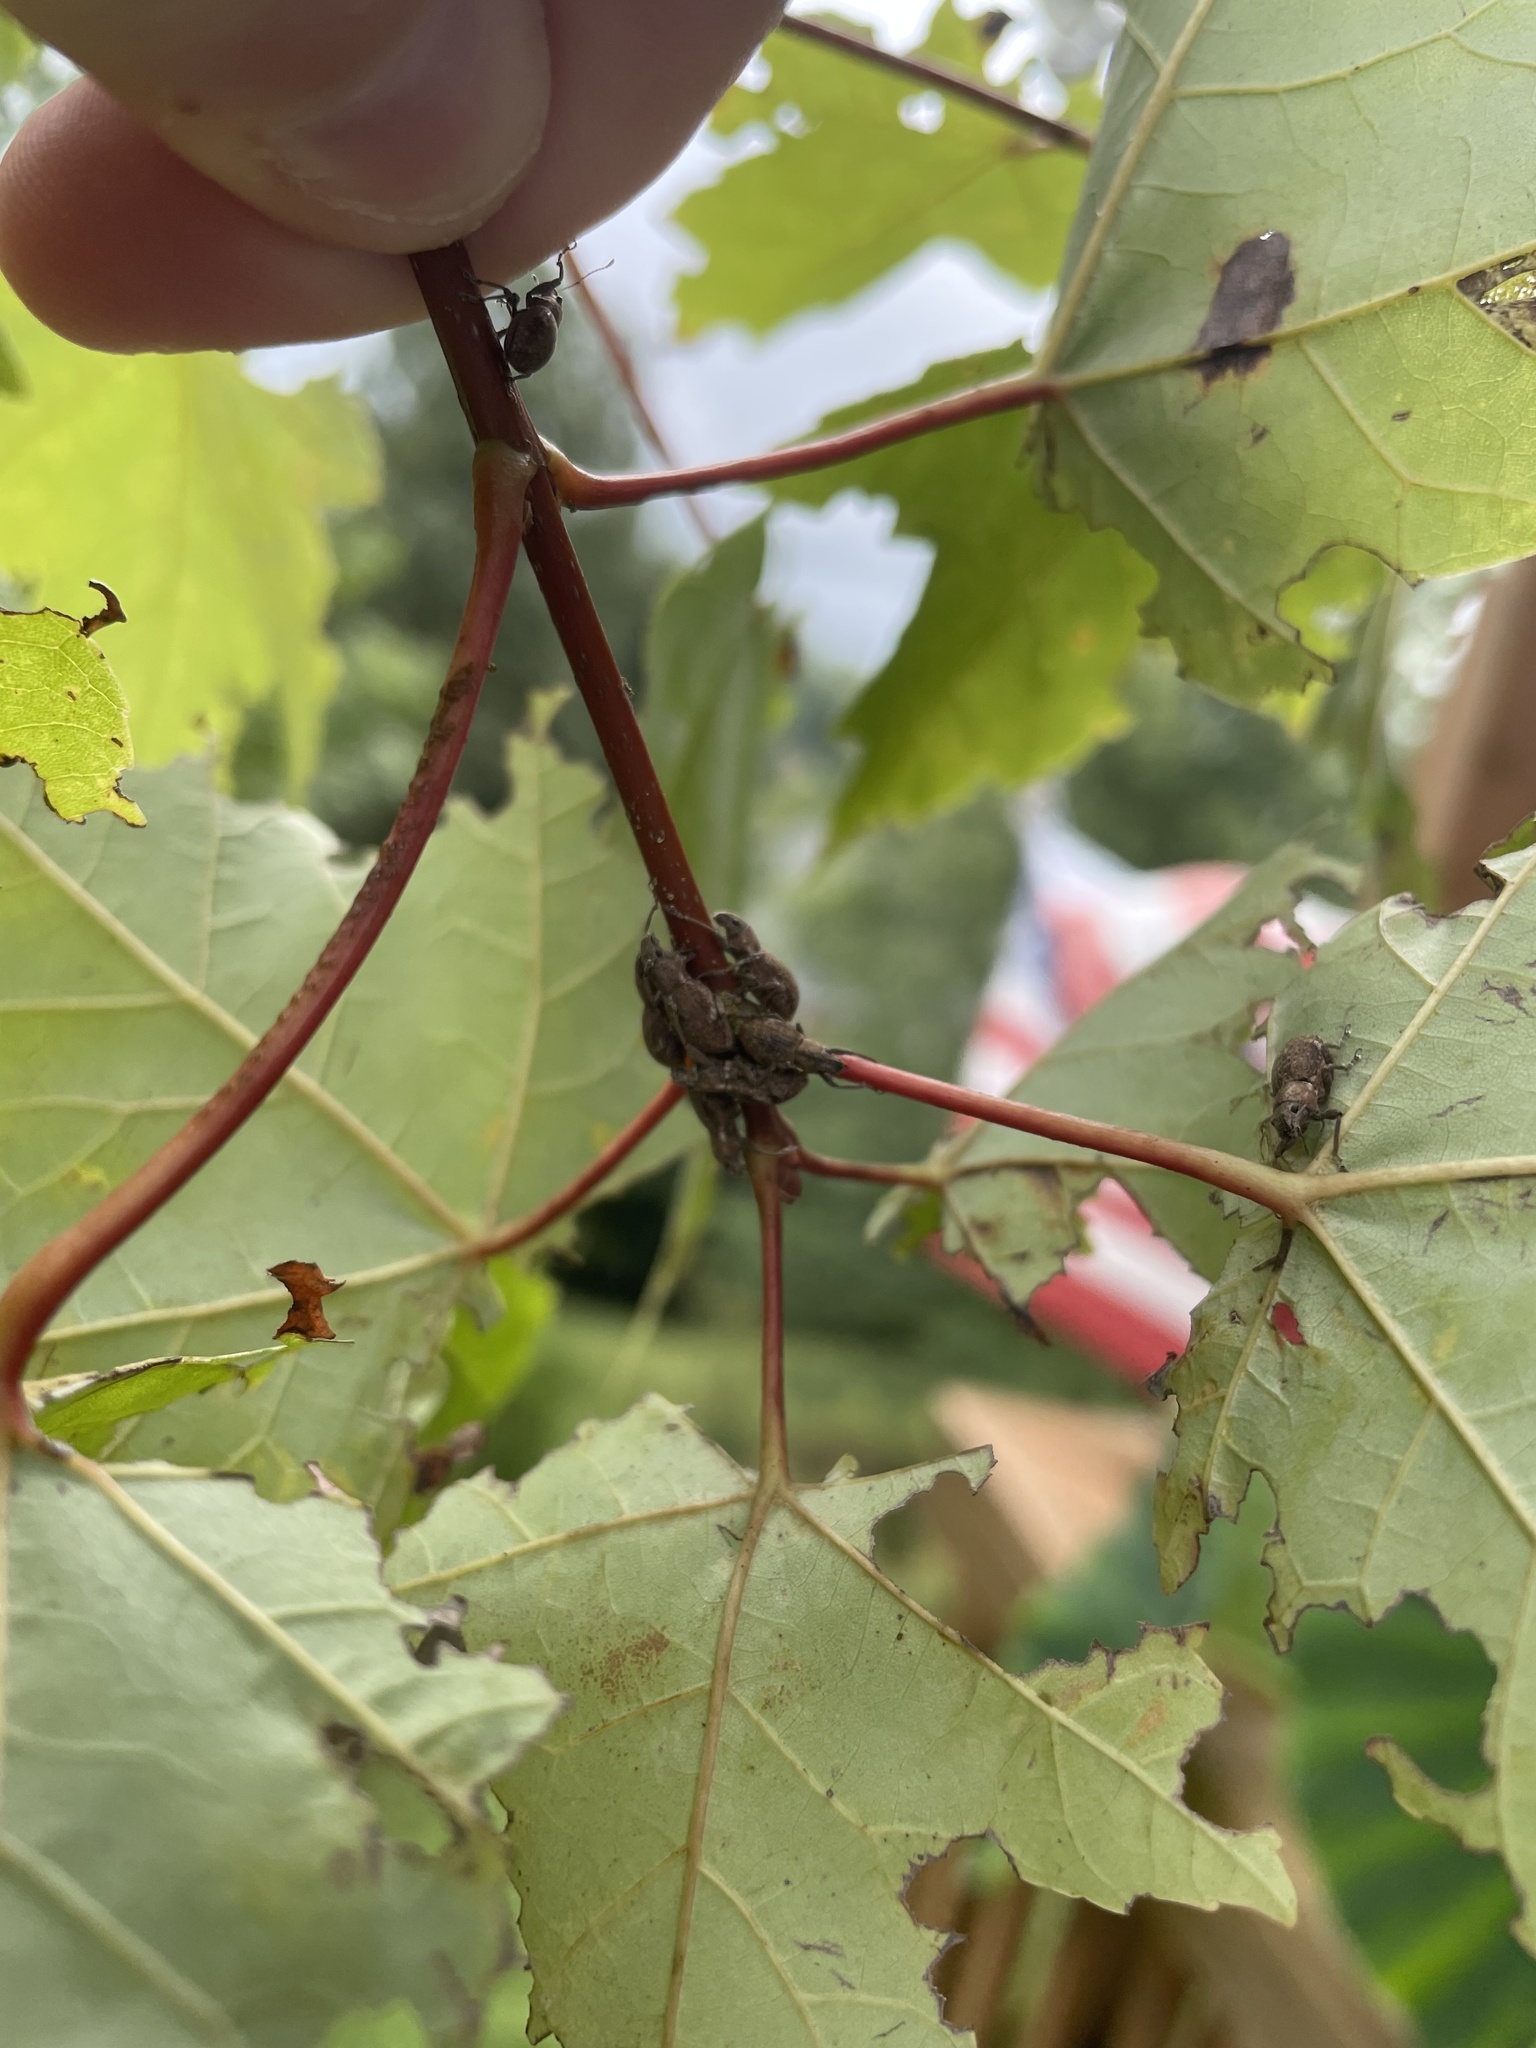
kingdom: Animalia
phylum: Arthropoda
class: Insecta
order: Coleoptera
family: Curculionidae
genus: Naupactus
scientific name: Naupactus cervinus
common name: Fuller rose beetle
